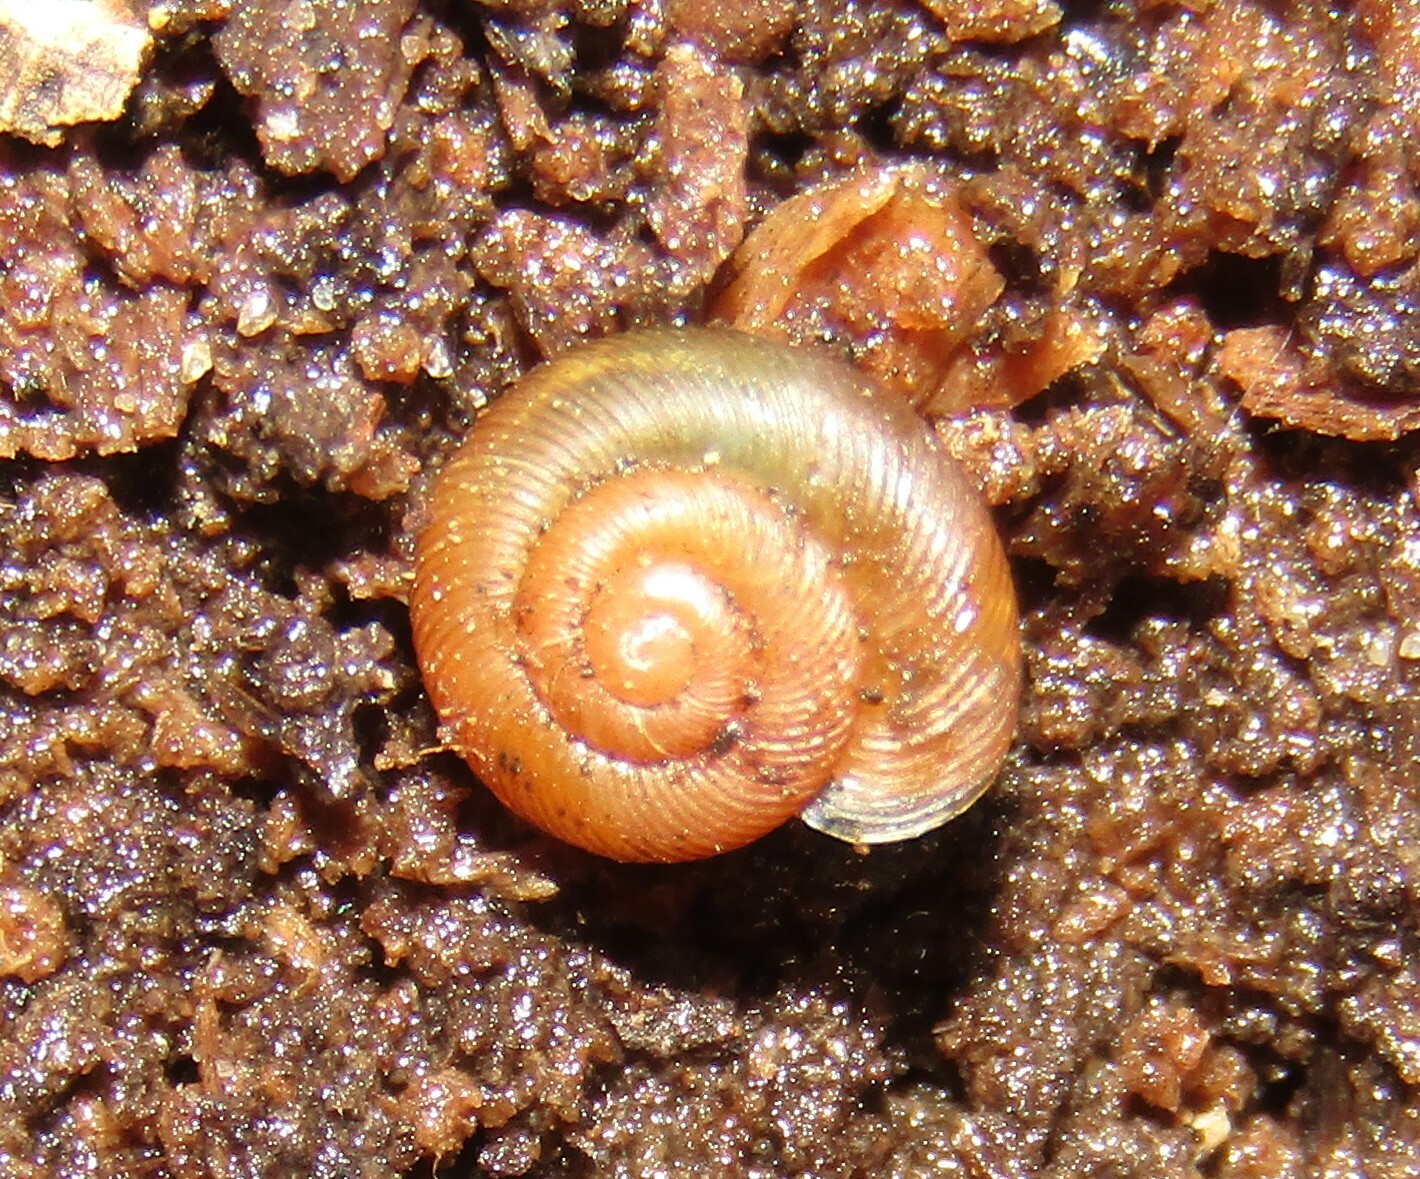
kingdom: Animalia
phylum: Mollusca
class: Gastropoda
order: Stylommatophora
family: Discidae
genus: Discus
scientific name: Discus ruderatus
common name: Brown disc snail
